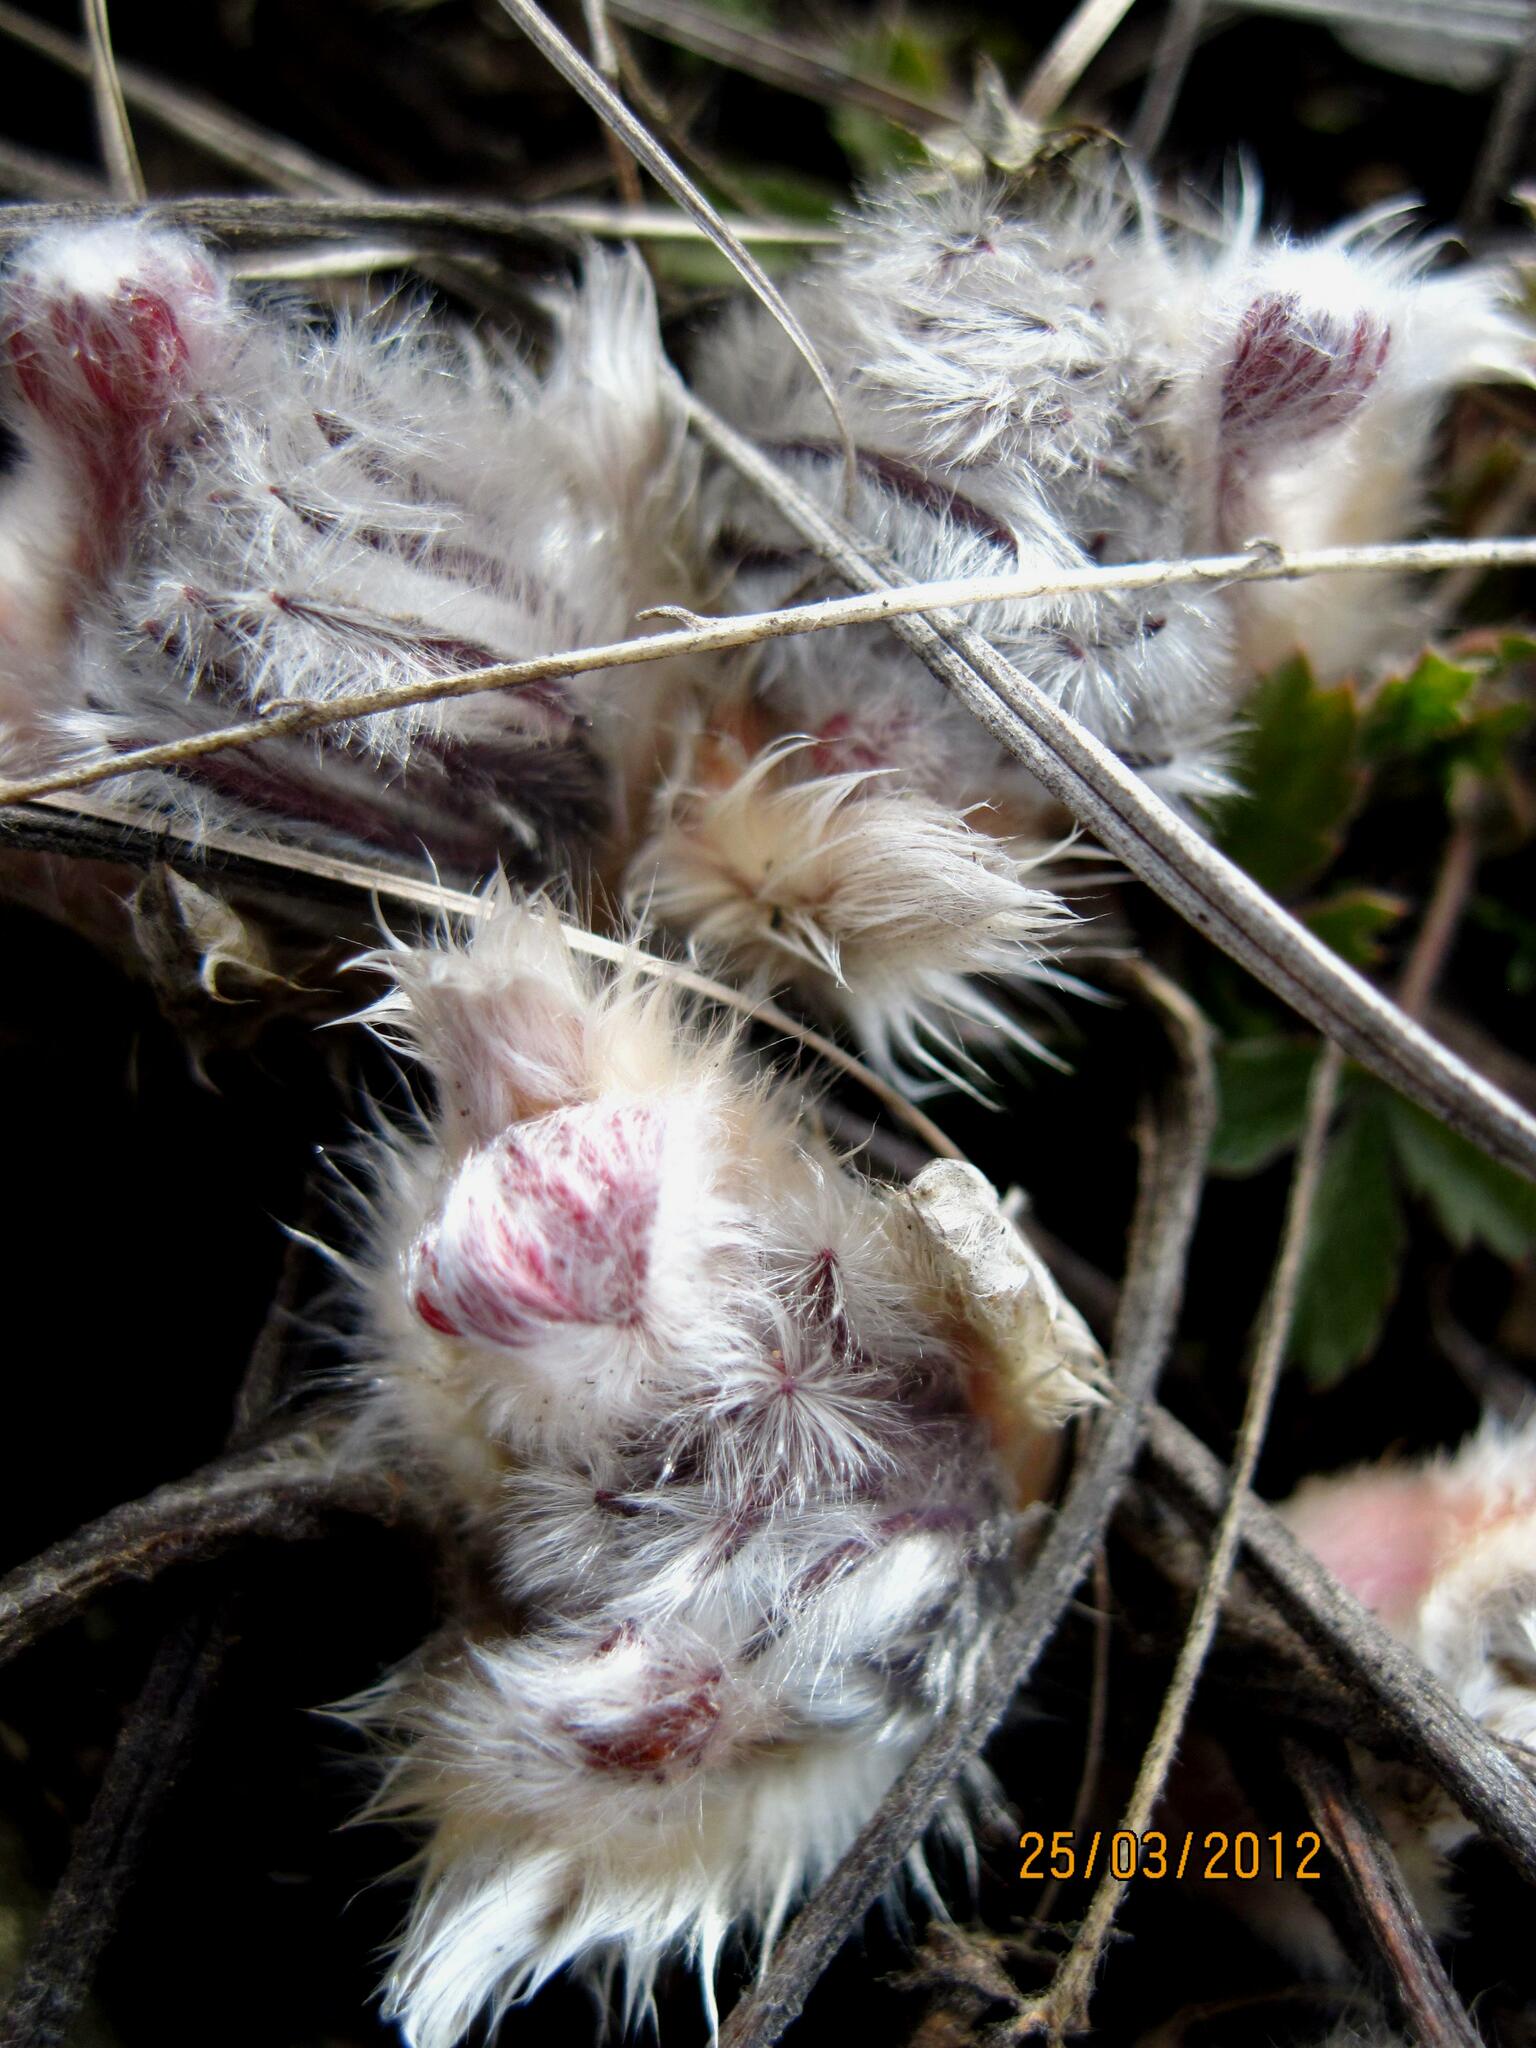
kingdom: Plantae
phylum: Tracheophyta
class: Magnoliopsida
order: Ranunculales
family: Ranunculaceae
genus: Pulsatilla
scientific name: Pulsatilla patens
